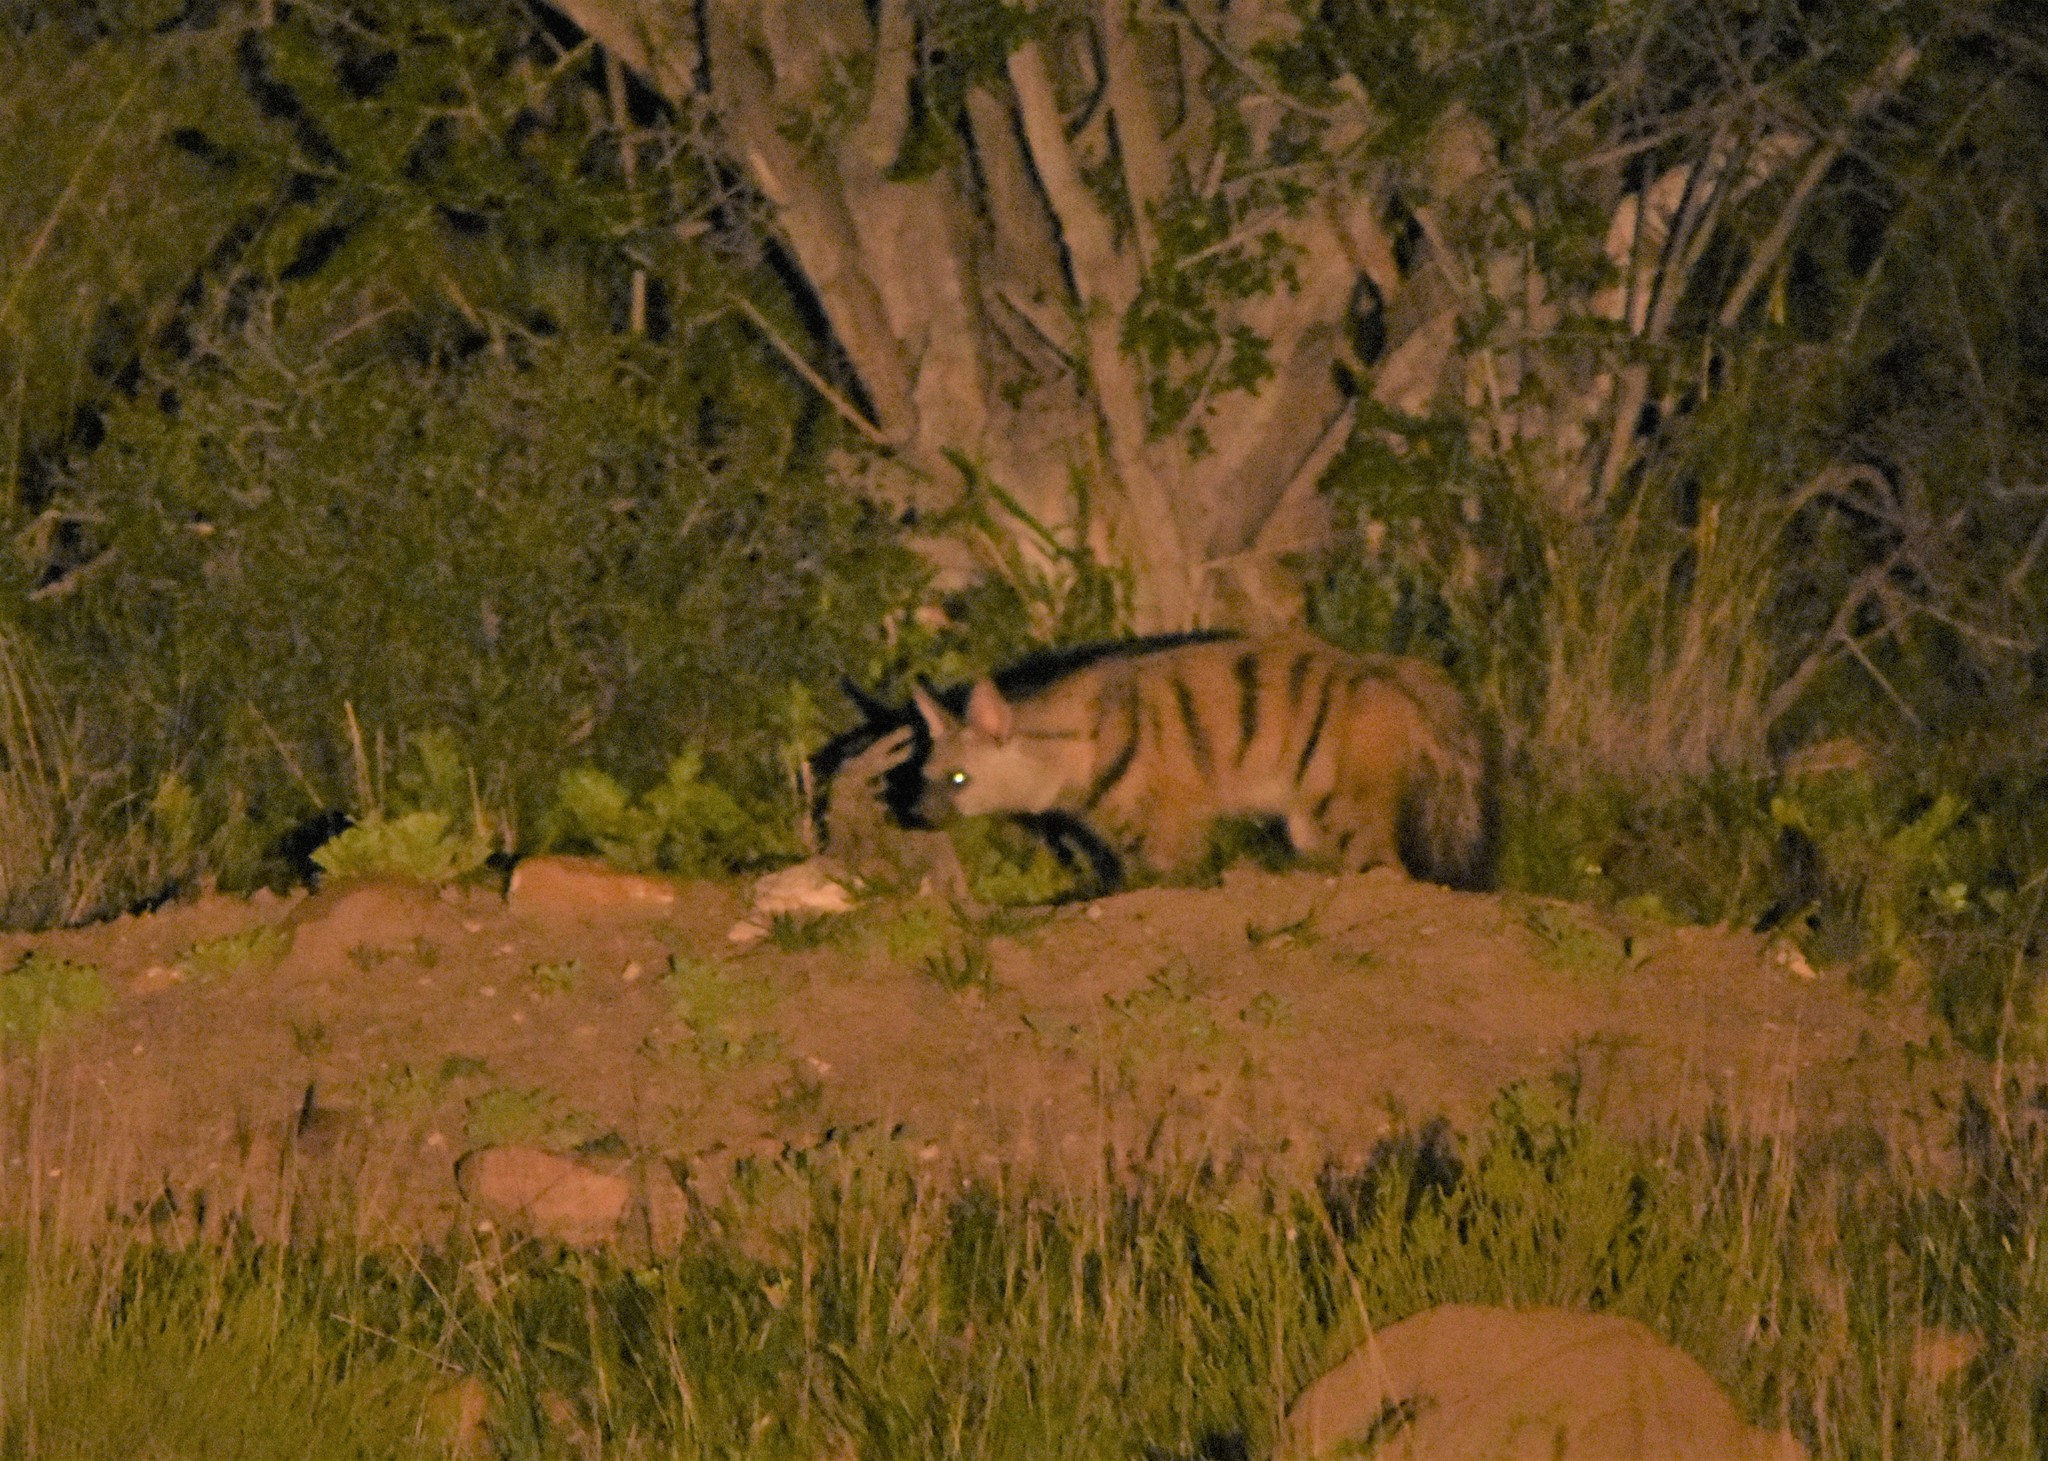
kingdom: Animalia
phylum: Chordata
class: Mammalia
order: Carnivora
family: Hyaenidae
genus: Proteles
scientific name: Proteles cristata
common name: Aardwolf
